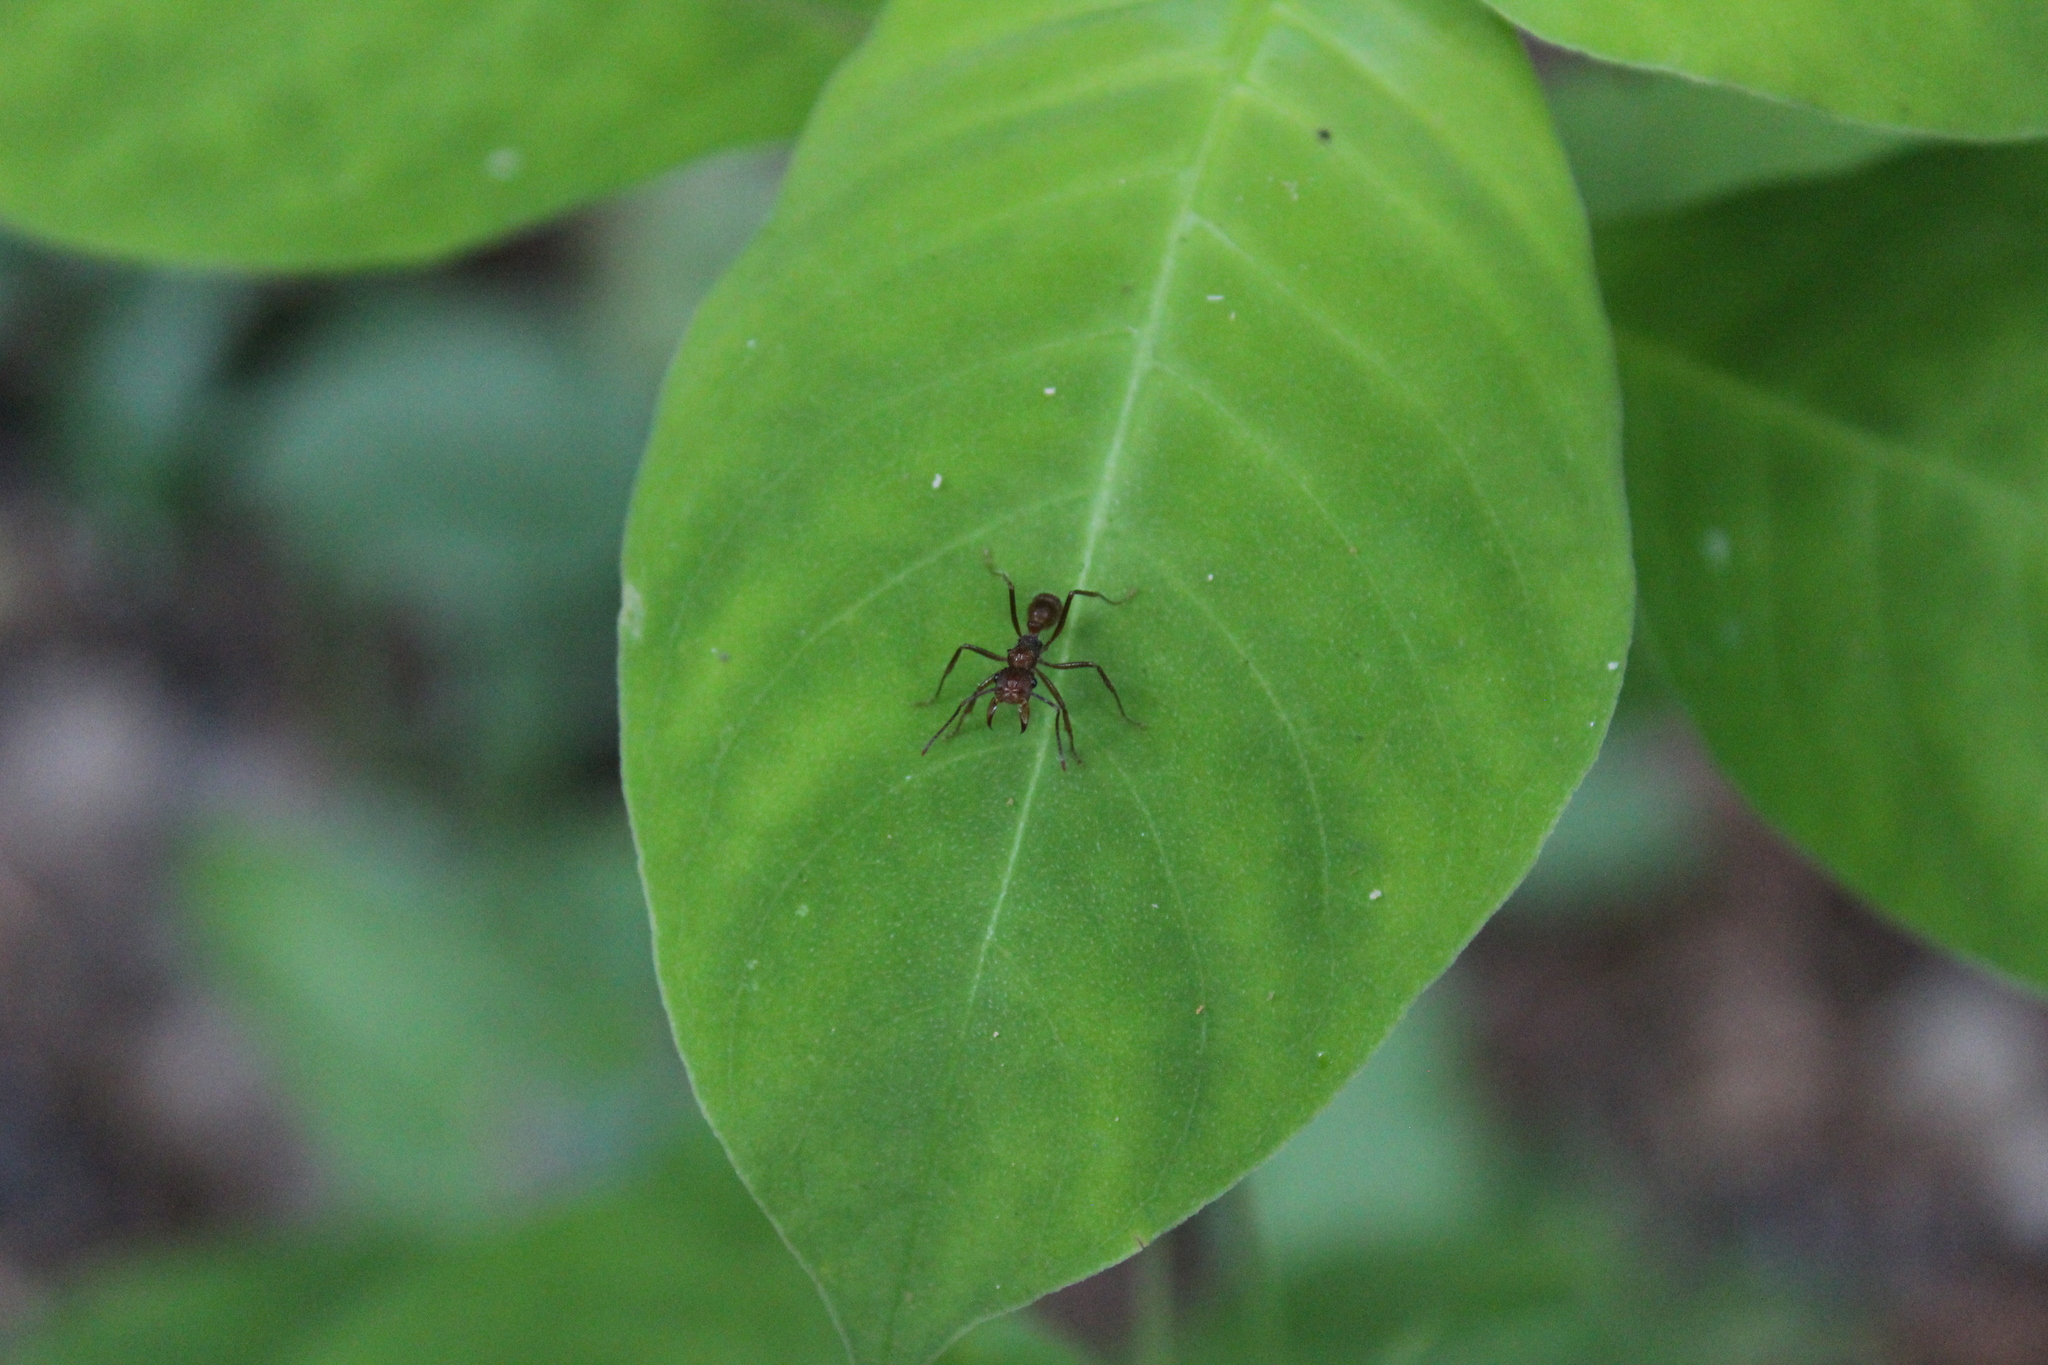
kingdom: Animalia
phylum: Arthropoda
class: Insecta
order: Hymenoptera
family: Formicidae
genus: Ectatomma
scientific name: Ectatomma tuberculatum
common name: Ant
